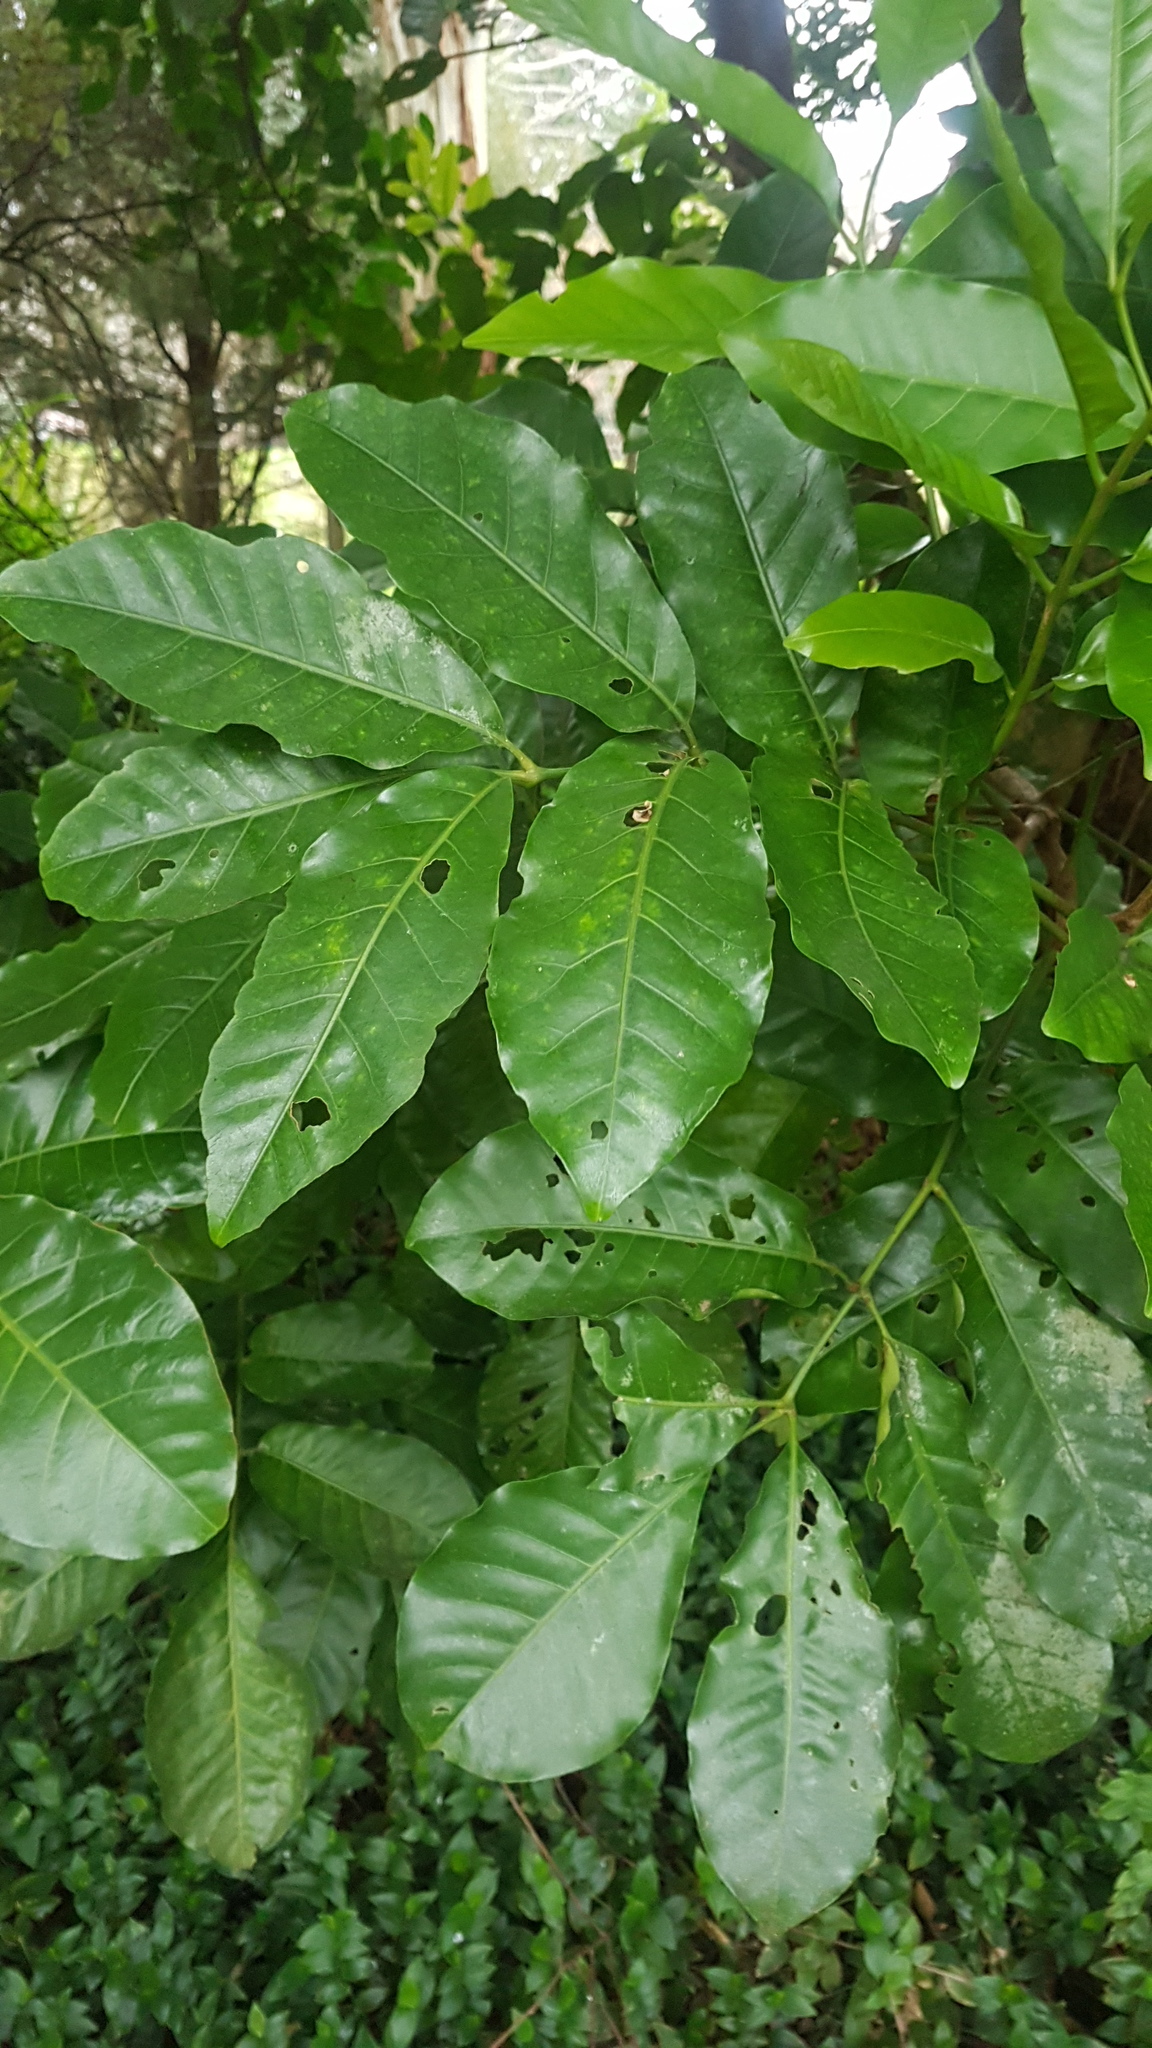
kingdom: Plantae
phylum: Tracheophyta
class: Magnoliopsida
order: Sapindales
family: Meliaceae
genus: Didymocheton
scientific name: Didymocheton spectabilis
